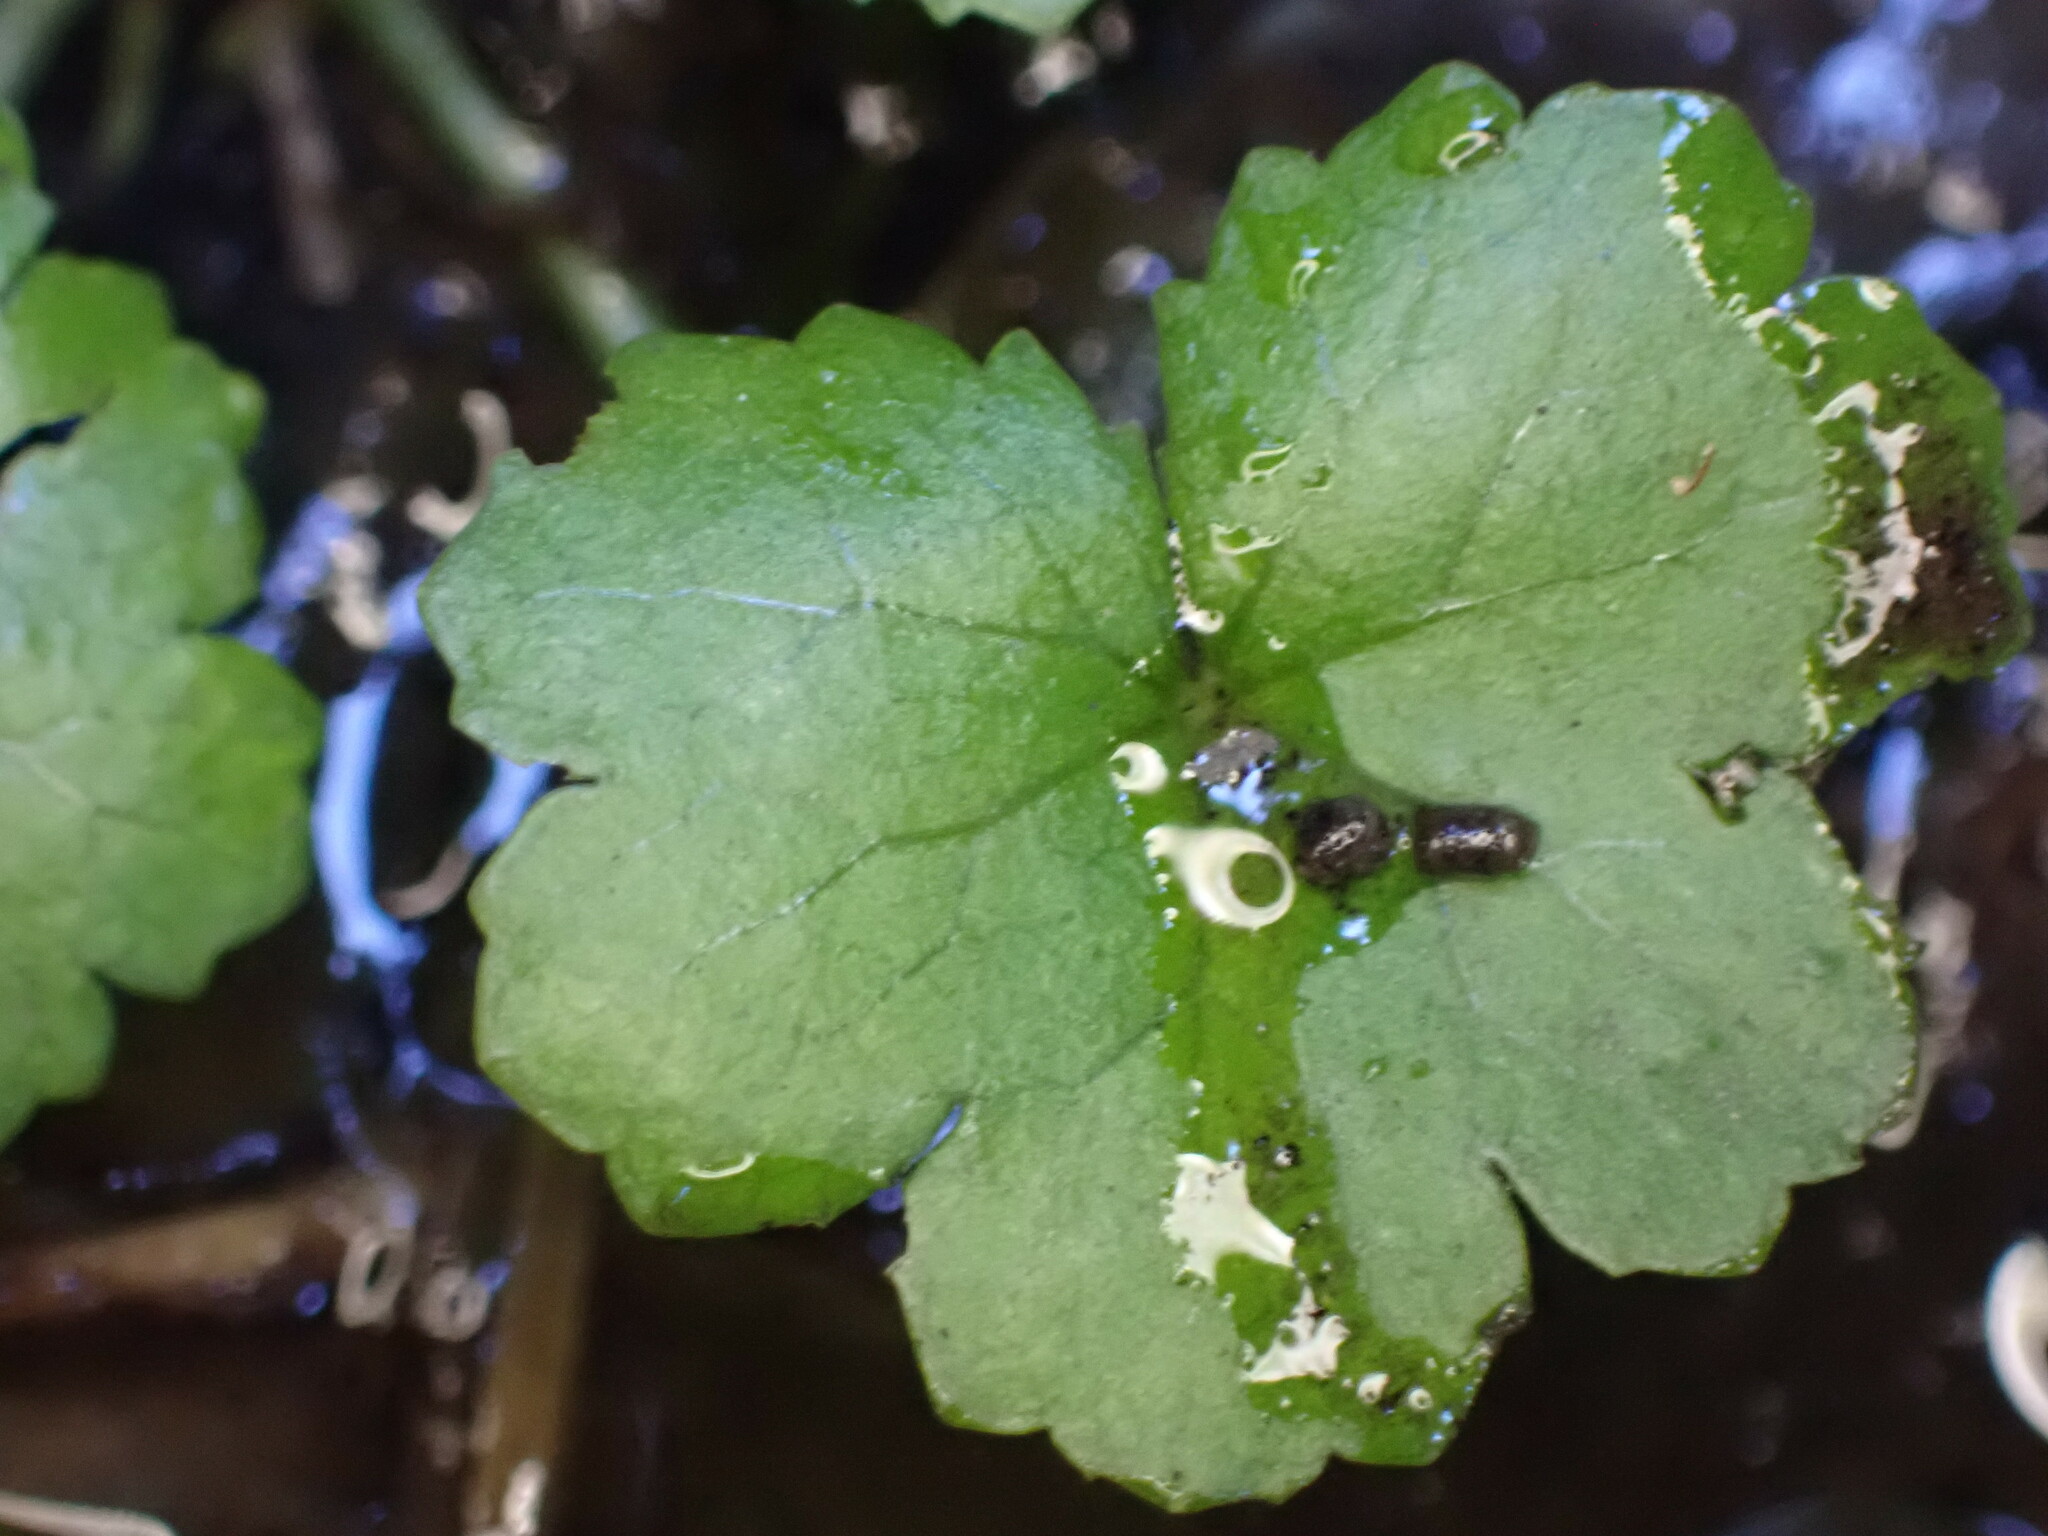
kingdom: Plantae
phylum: Tracheophyta
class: Magnoliopsida
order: Apiales
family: Araliaceae
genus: Hydrocotyle
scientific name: Hydrocotyle heteromeria
